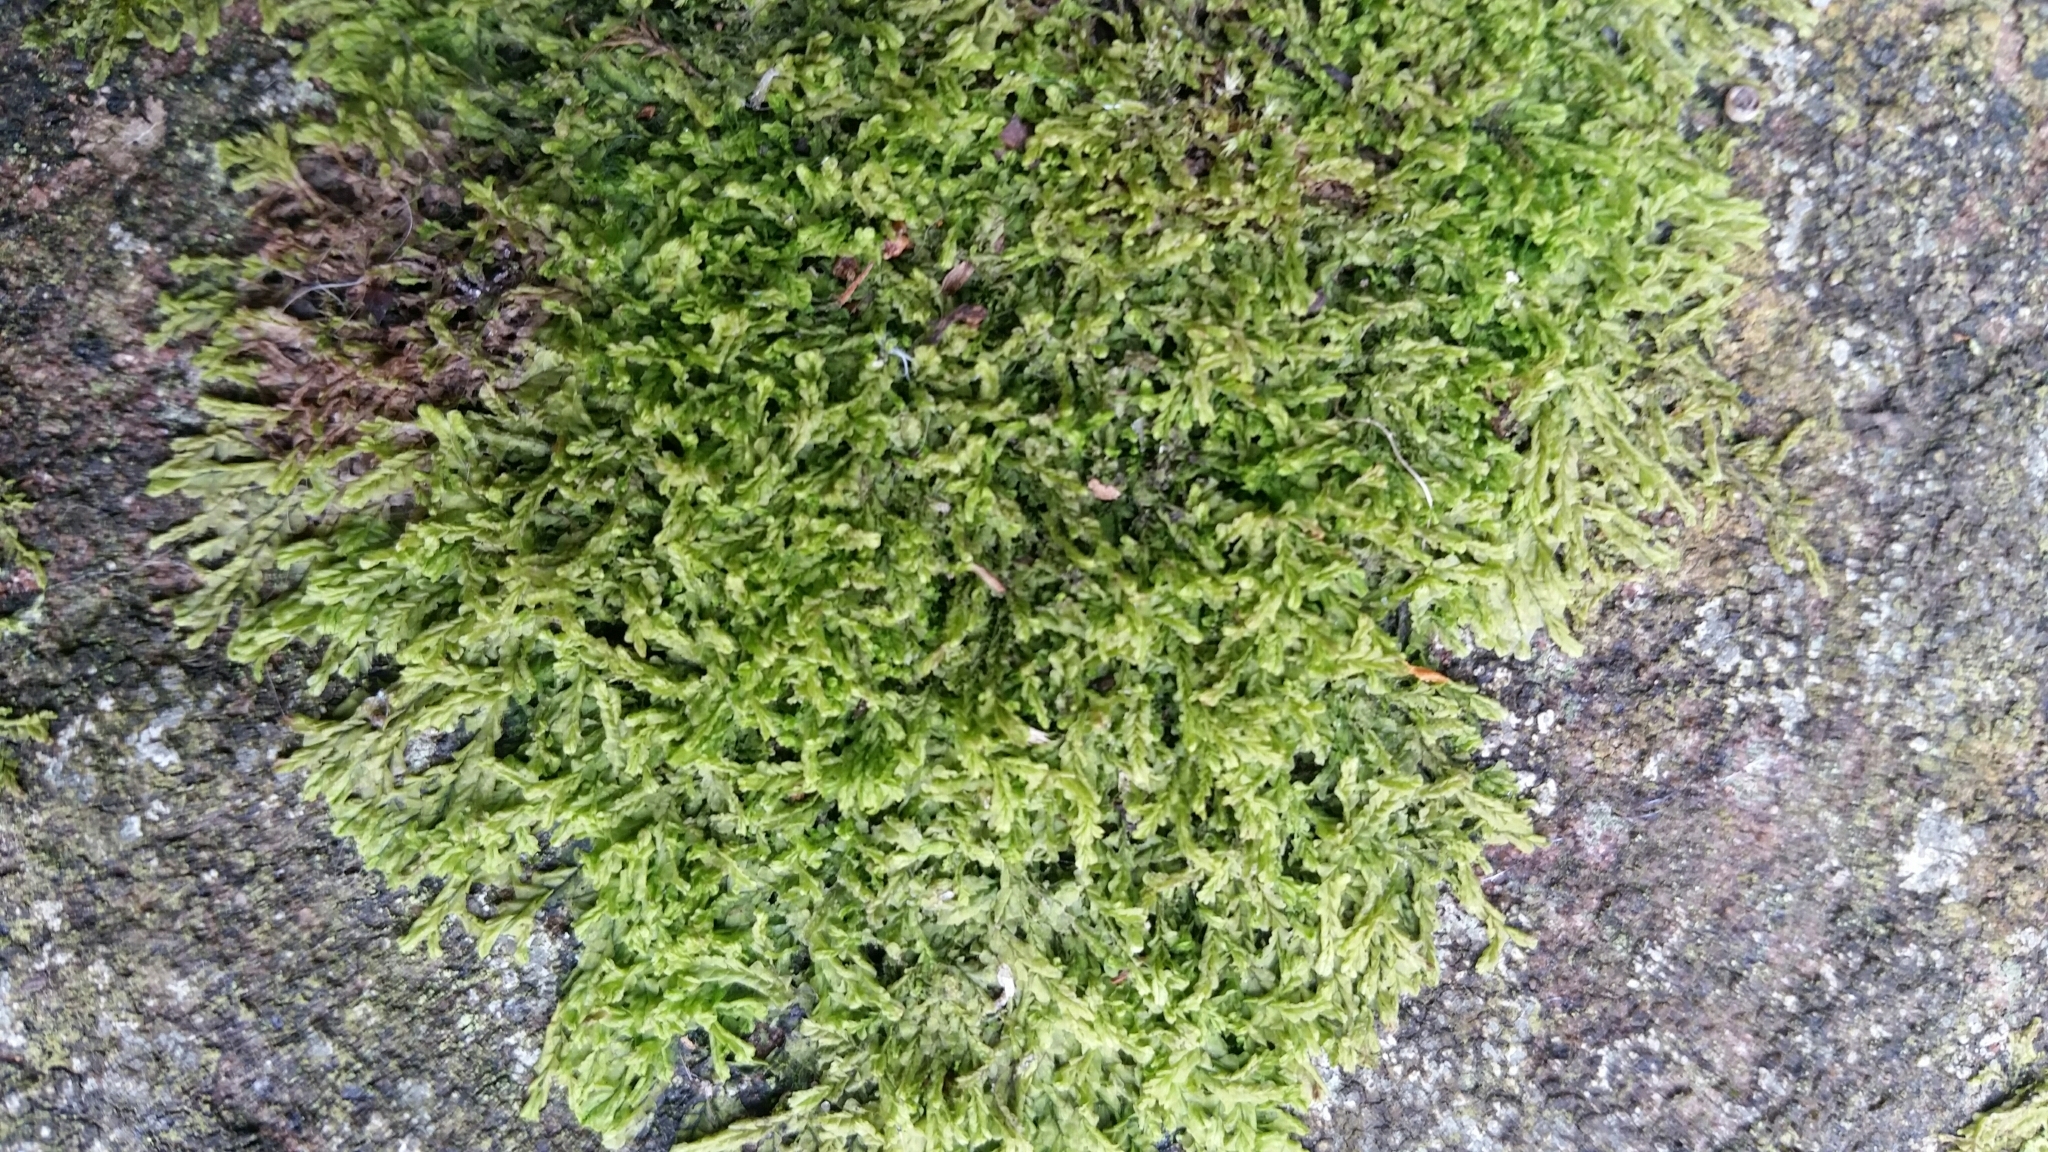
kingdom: Plantae
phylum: Marchantiophyta
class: Jungermanniopsida
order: Jungermanniales
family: Lophocoleaceae
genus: Lophocolea
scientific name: Lophocolea heterophylla
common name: Variable-leaved crestwort
